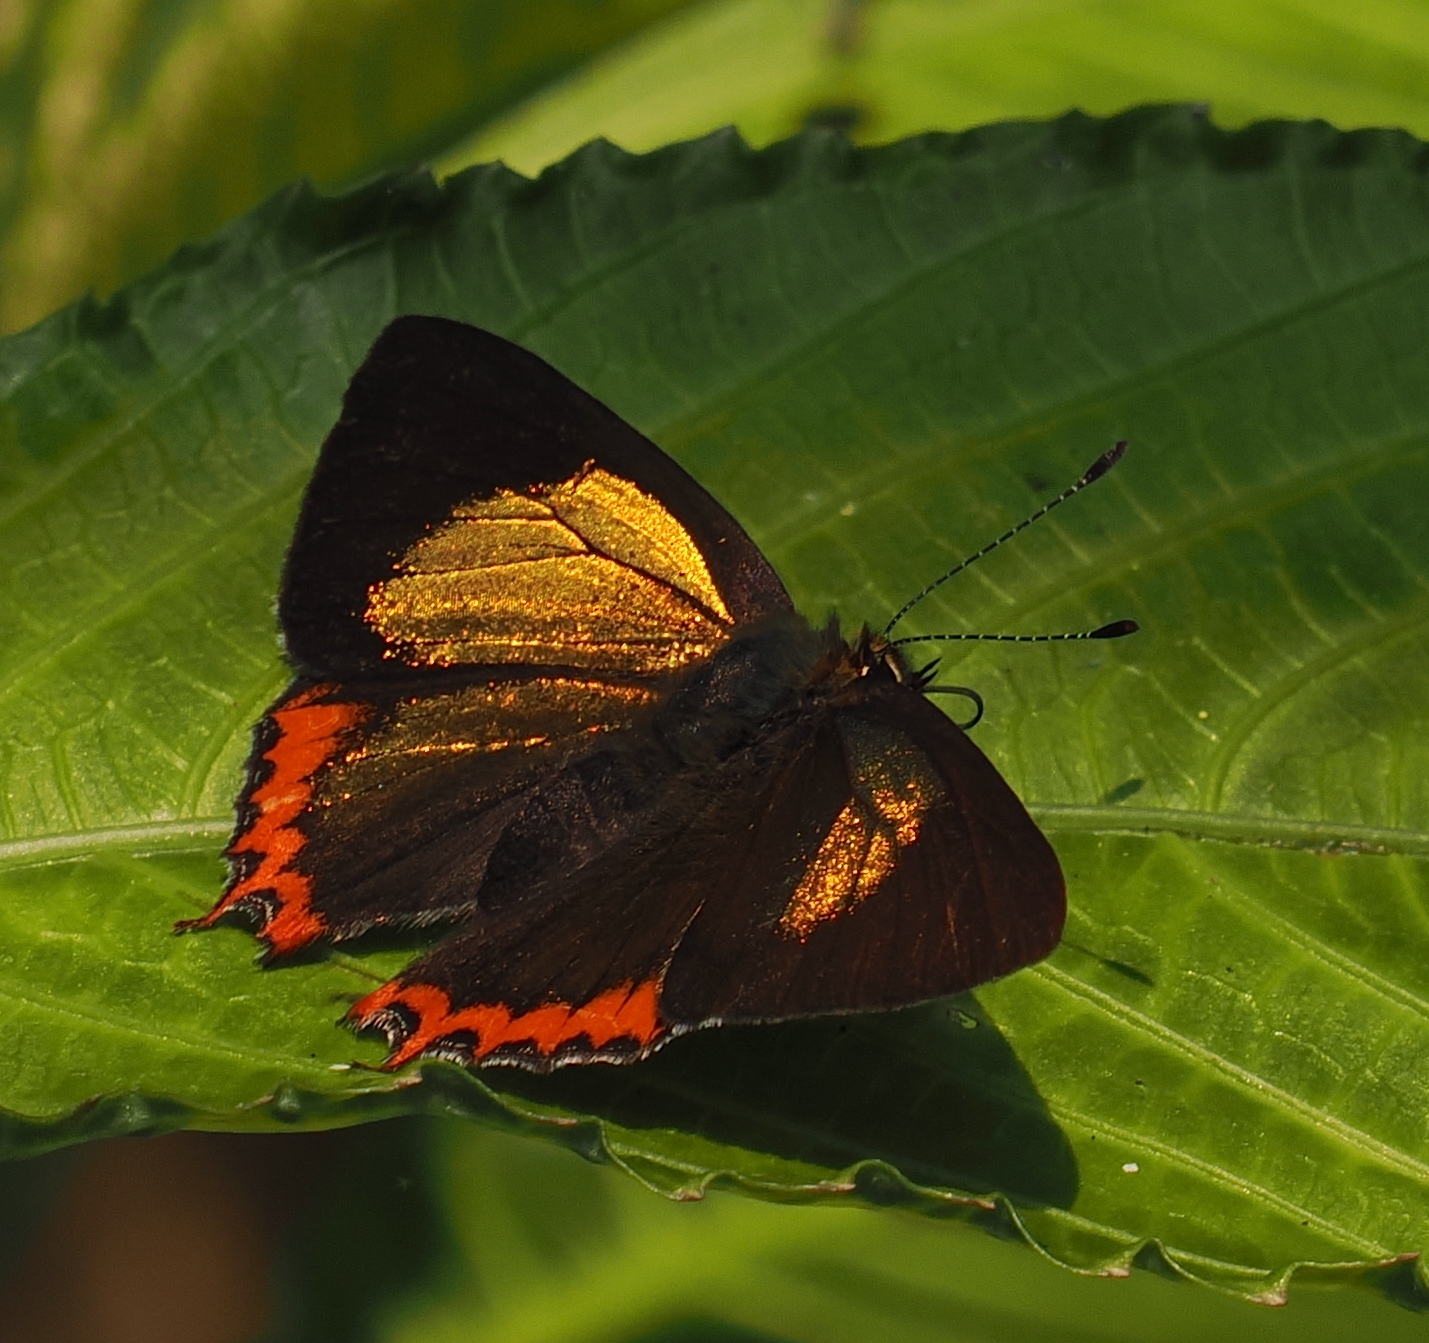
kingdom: Animalia
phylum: Arthropoda
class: Insecta
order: Lepidoptera
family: Lycaenidae
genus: Heliophorus
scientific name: Heliophorus brahma
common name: Golden sapphire
